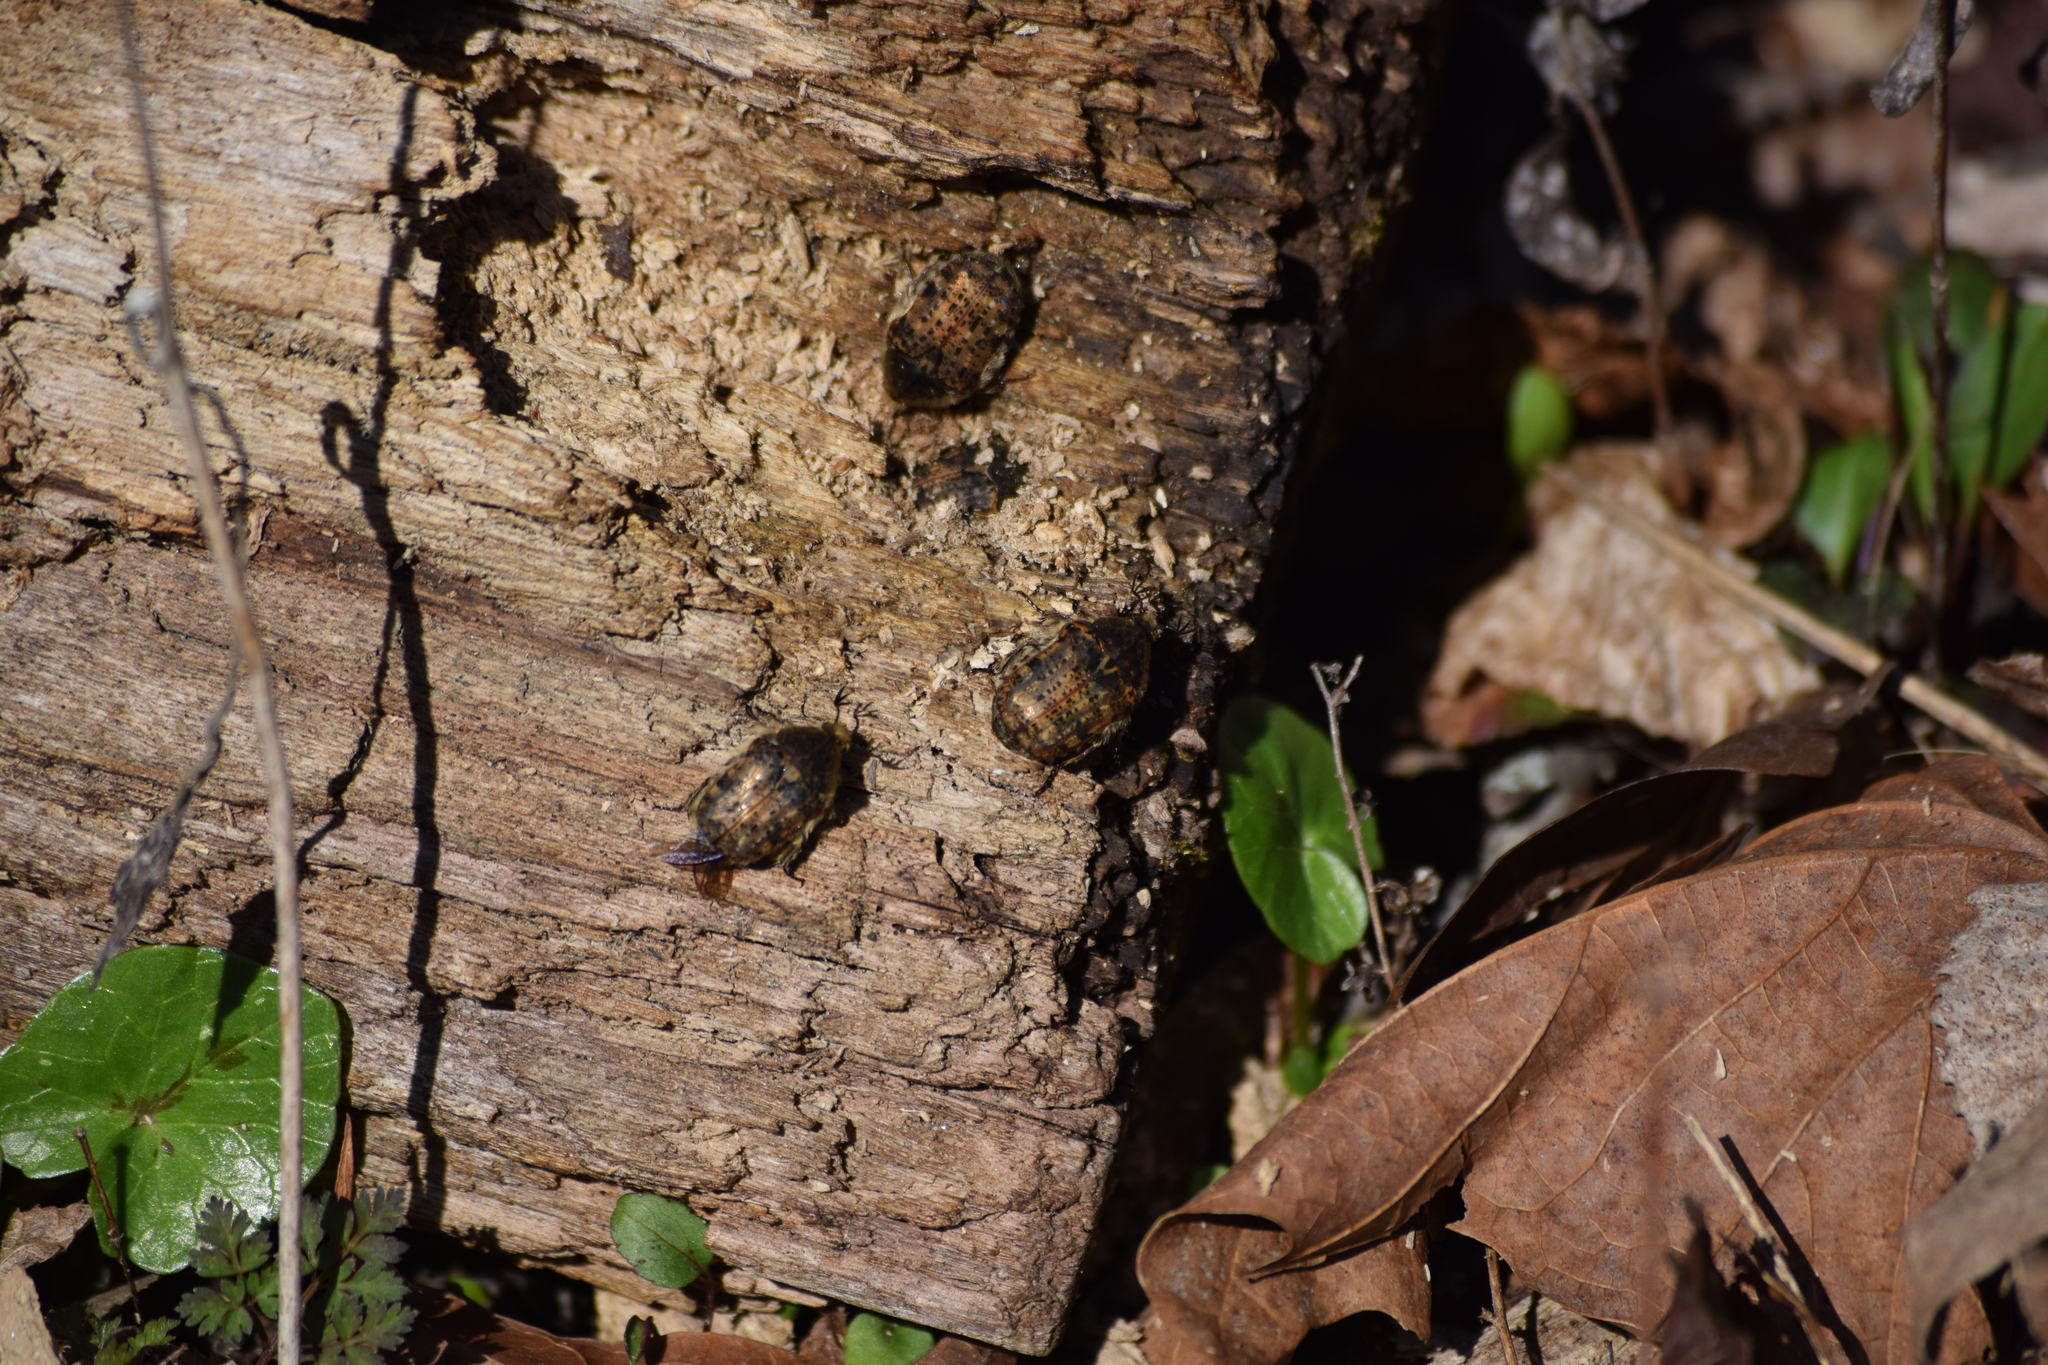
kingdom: Animalia
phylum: Arthropoda
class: Insecta
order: Coleoptera
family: Scarabaeidae
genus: Euphoria
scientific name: Euphoria inda
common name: Bumble flower beetle
